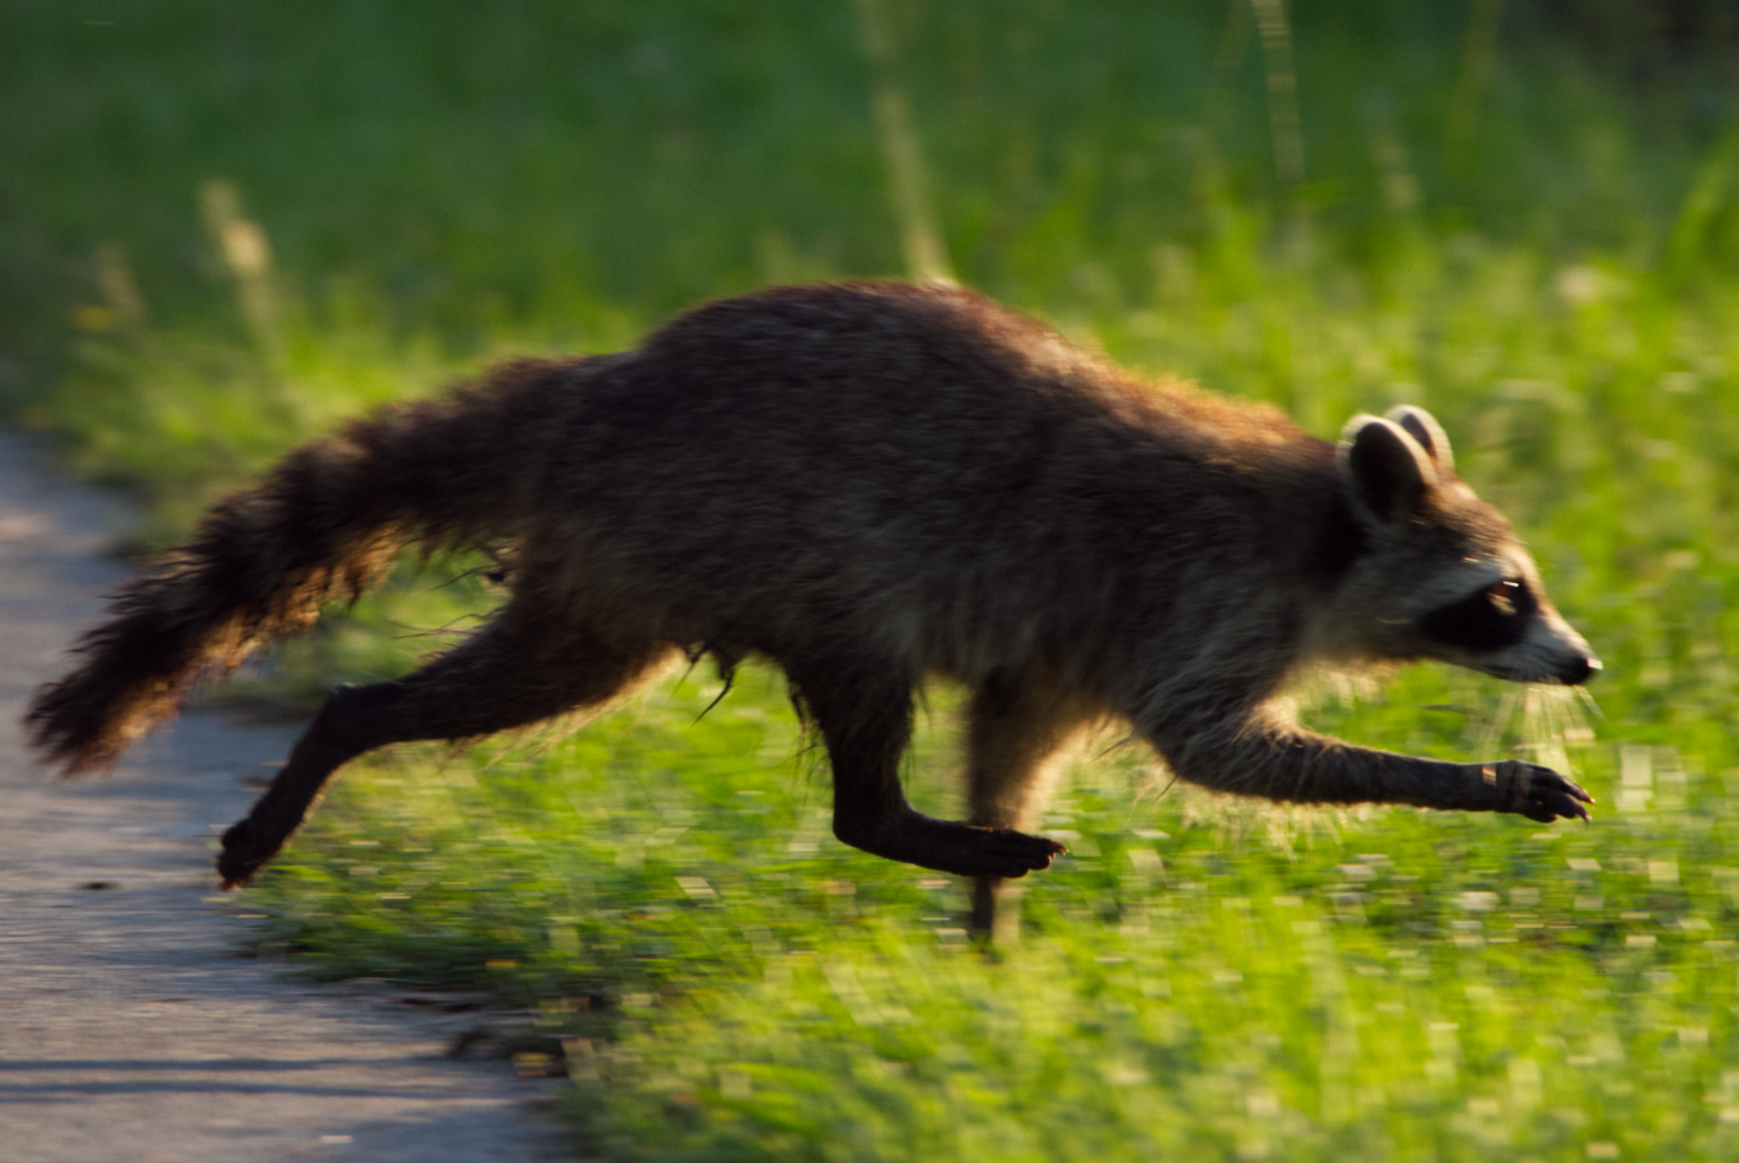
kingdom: Animalia
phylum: Chordata
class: Mammalia
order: Carnivora
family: Procyonidae
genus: Procyon
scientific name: Procyon lotor
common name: Raccoon
